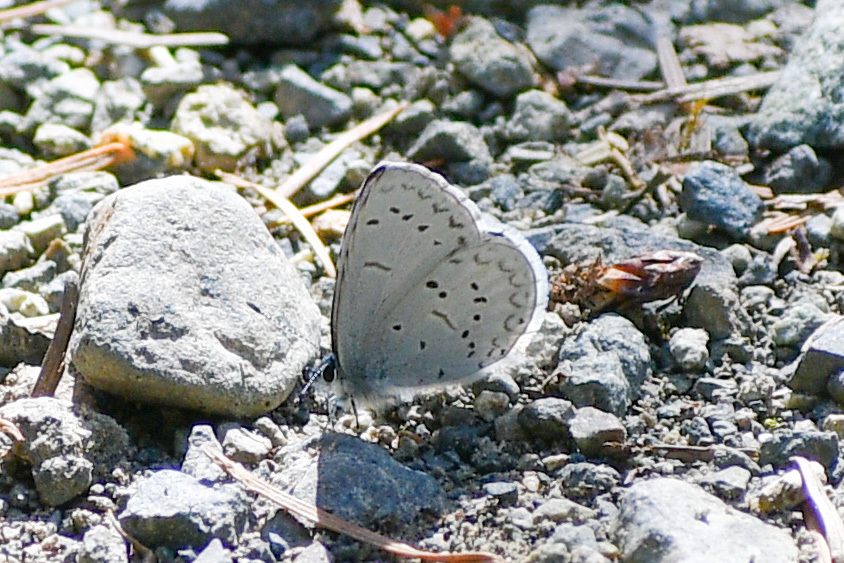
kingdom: Animalia
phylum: Arthropoda
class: Insecta
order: Lepidoptera
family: Lycaenidae
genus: Celastrina
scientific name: Celastrina ladon
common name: Spring azure
